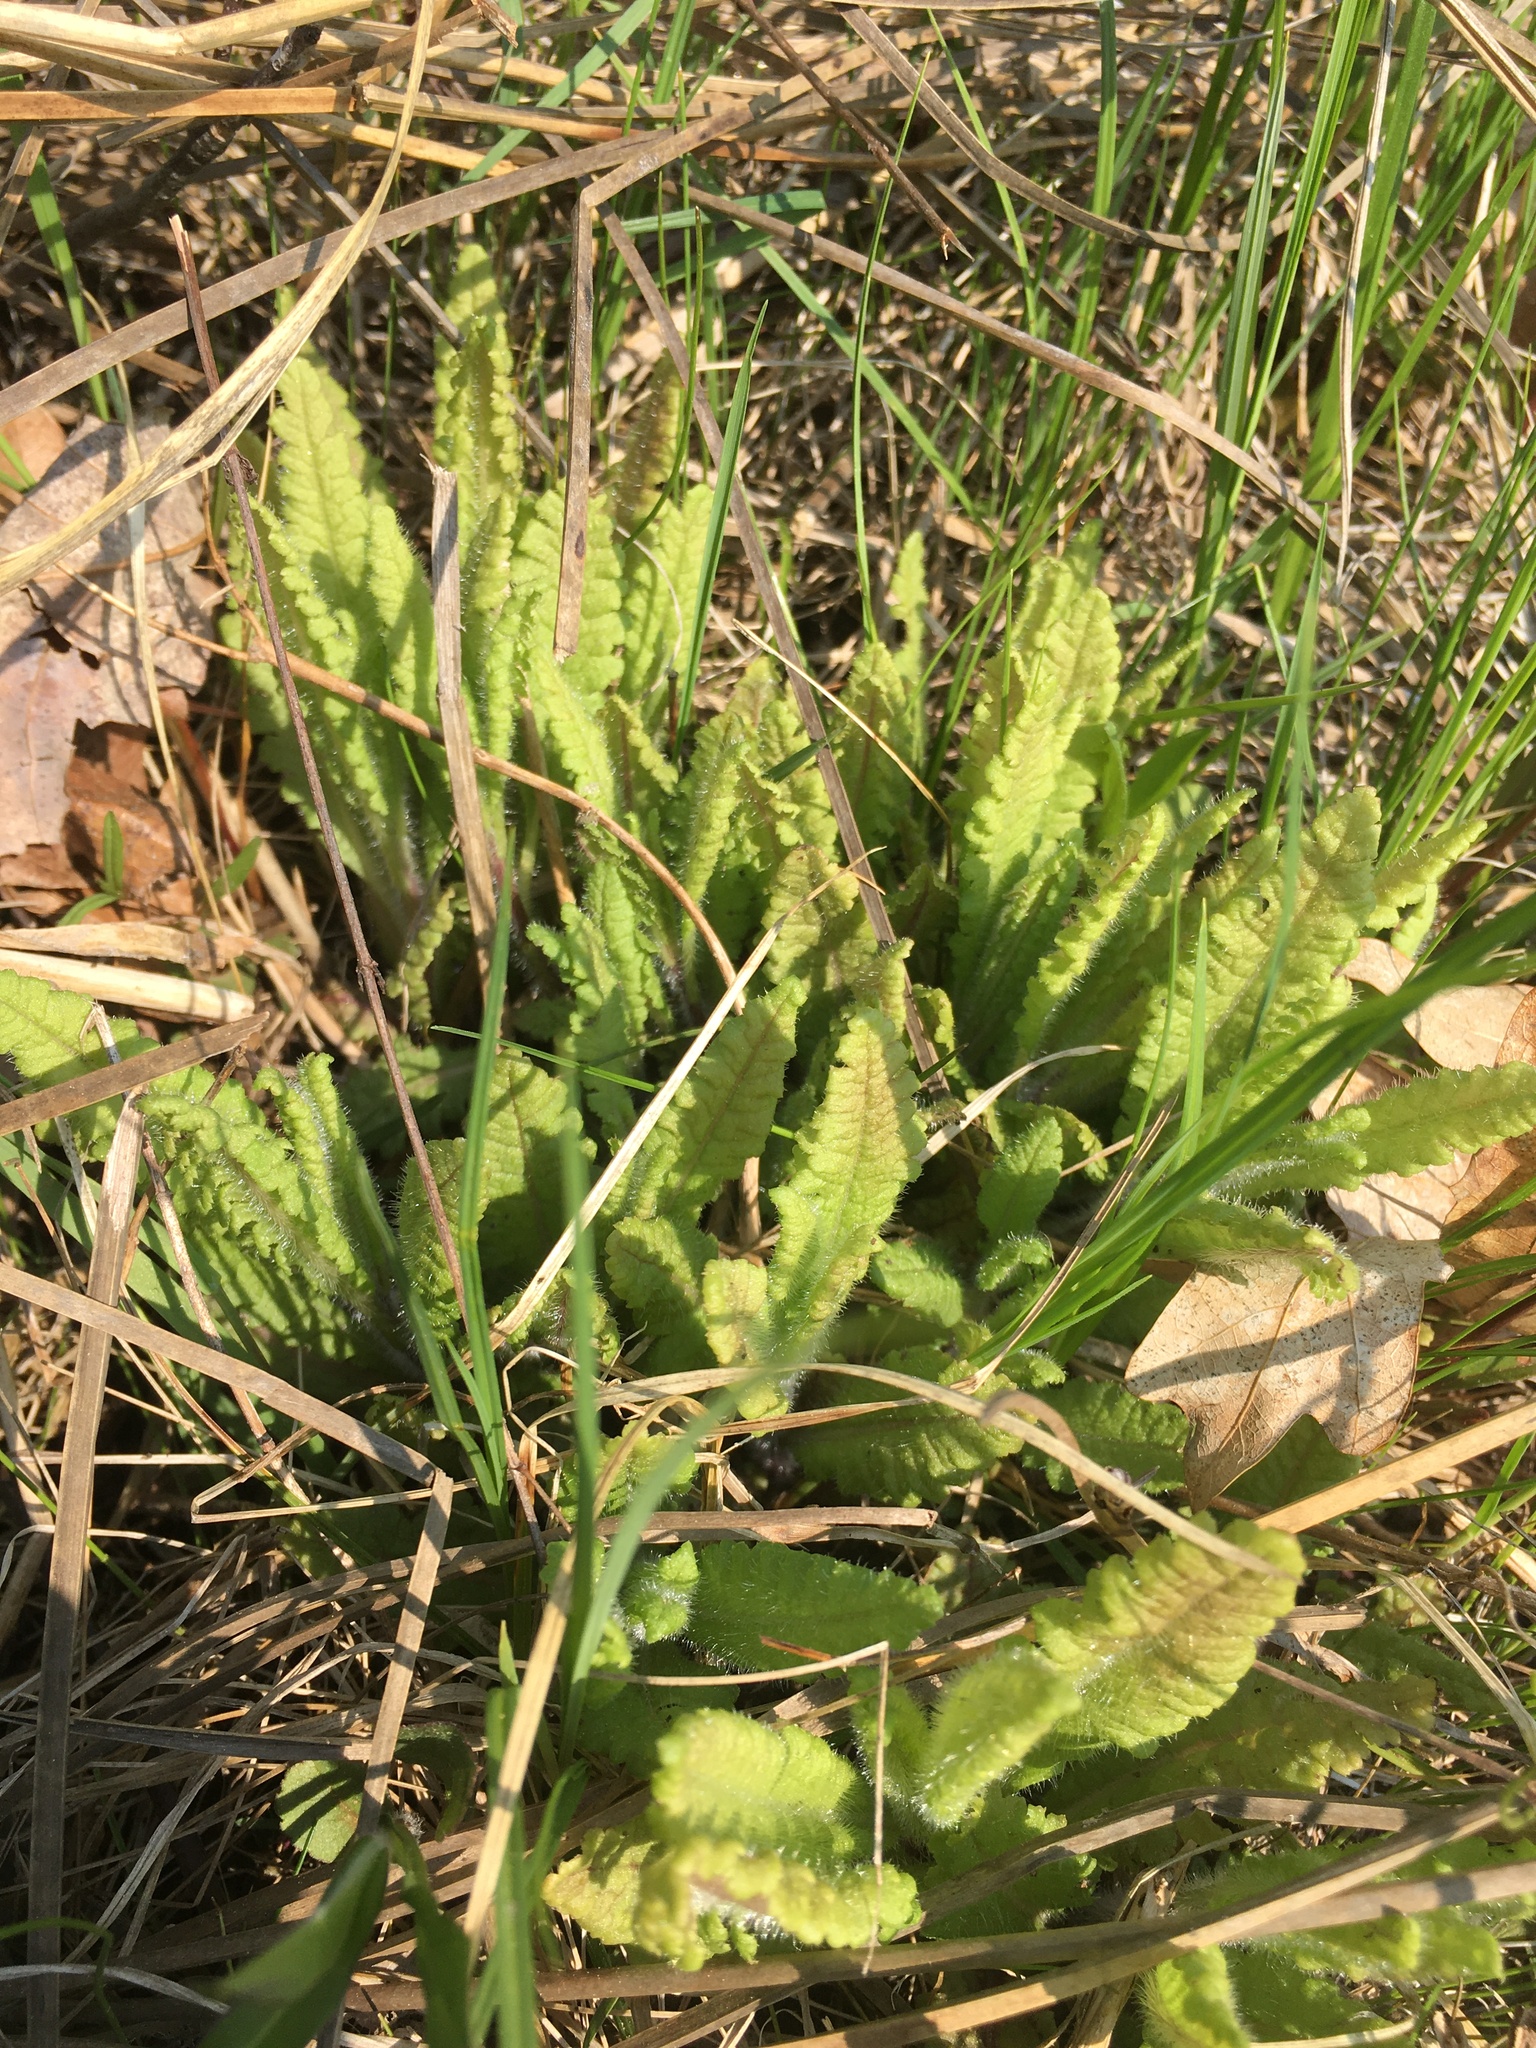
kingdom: Plantae
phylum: Tracheophyta
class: Magnoliopsida
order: Lamiales
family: Orobanchaceae
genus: Pedicularis
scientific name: Pedicularis lanceolata
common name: Swamp lousewort
